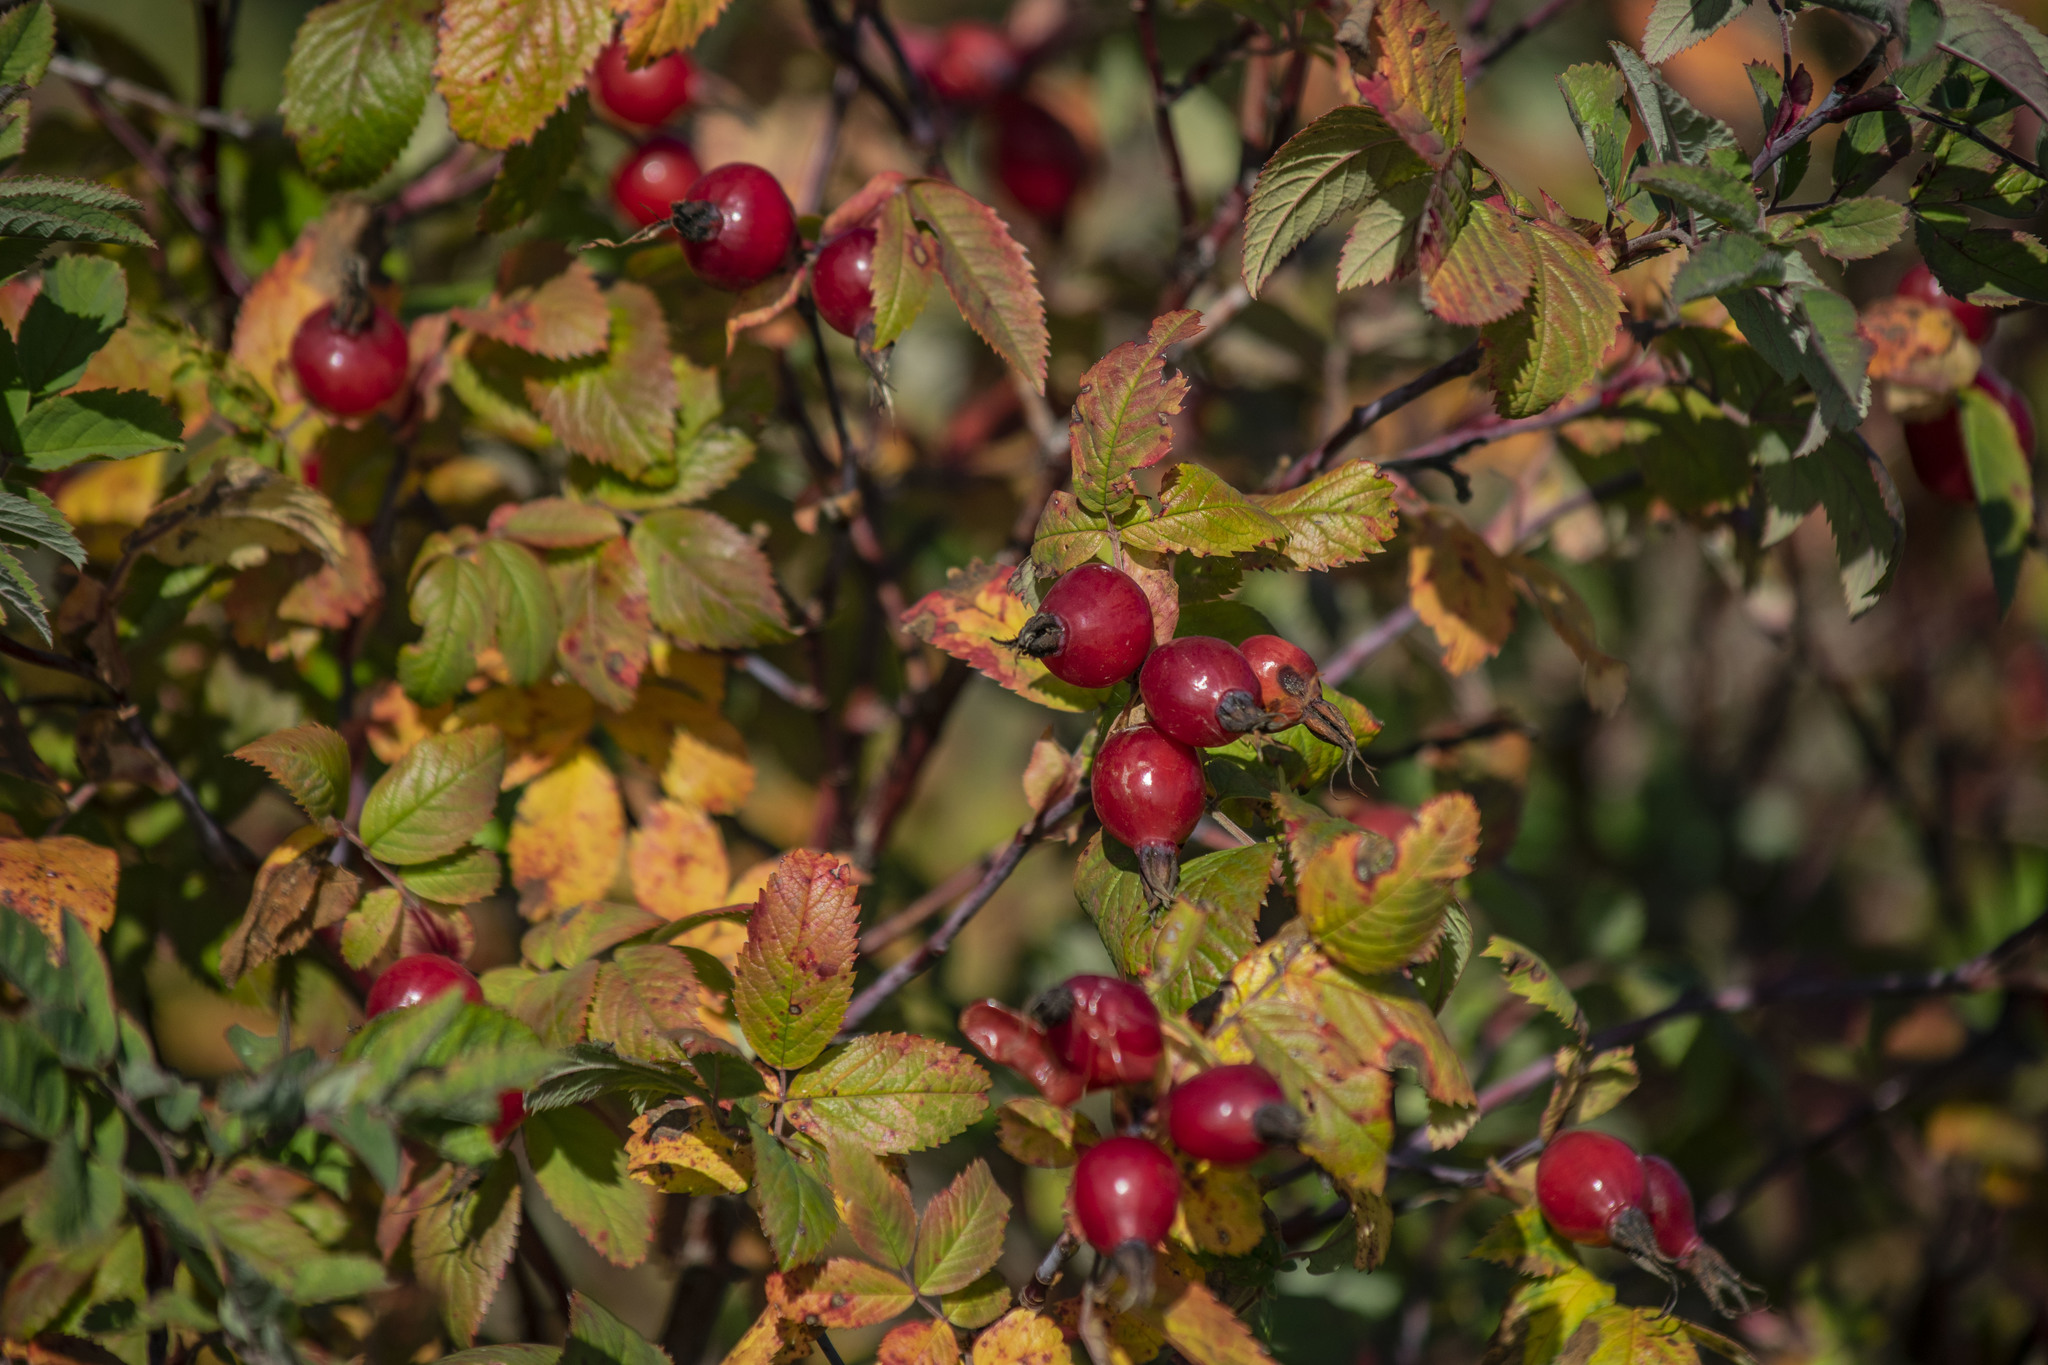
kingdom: Plantae
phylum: Tracheophyta
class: Magnoliopsida
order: Rosales
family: Rosaceae
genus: Rosa
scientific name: Rosa majalis
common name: Cinnamon rose
